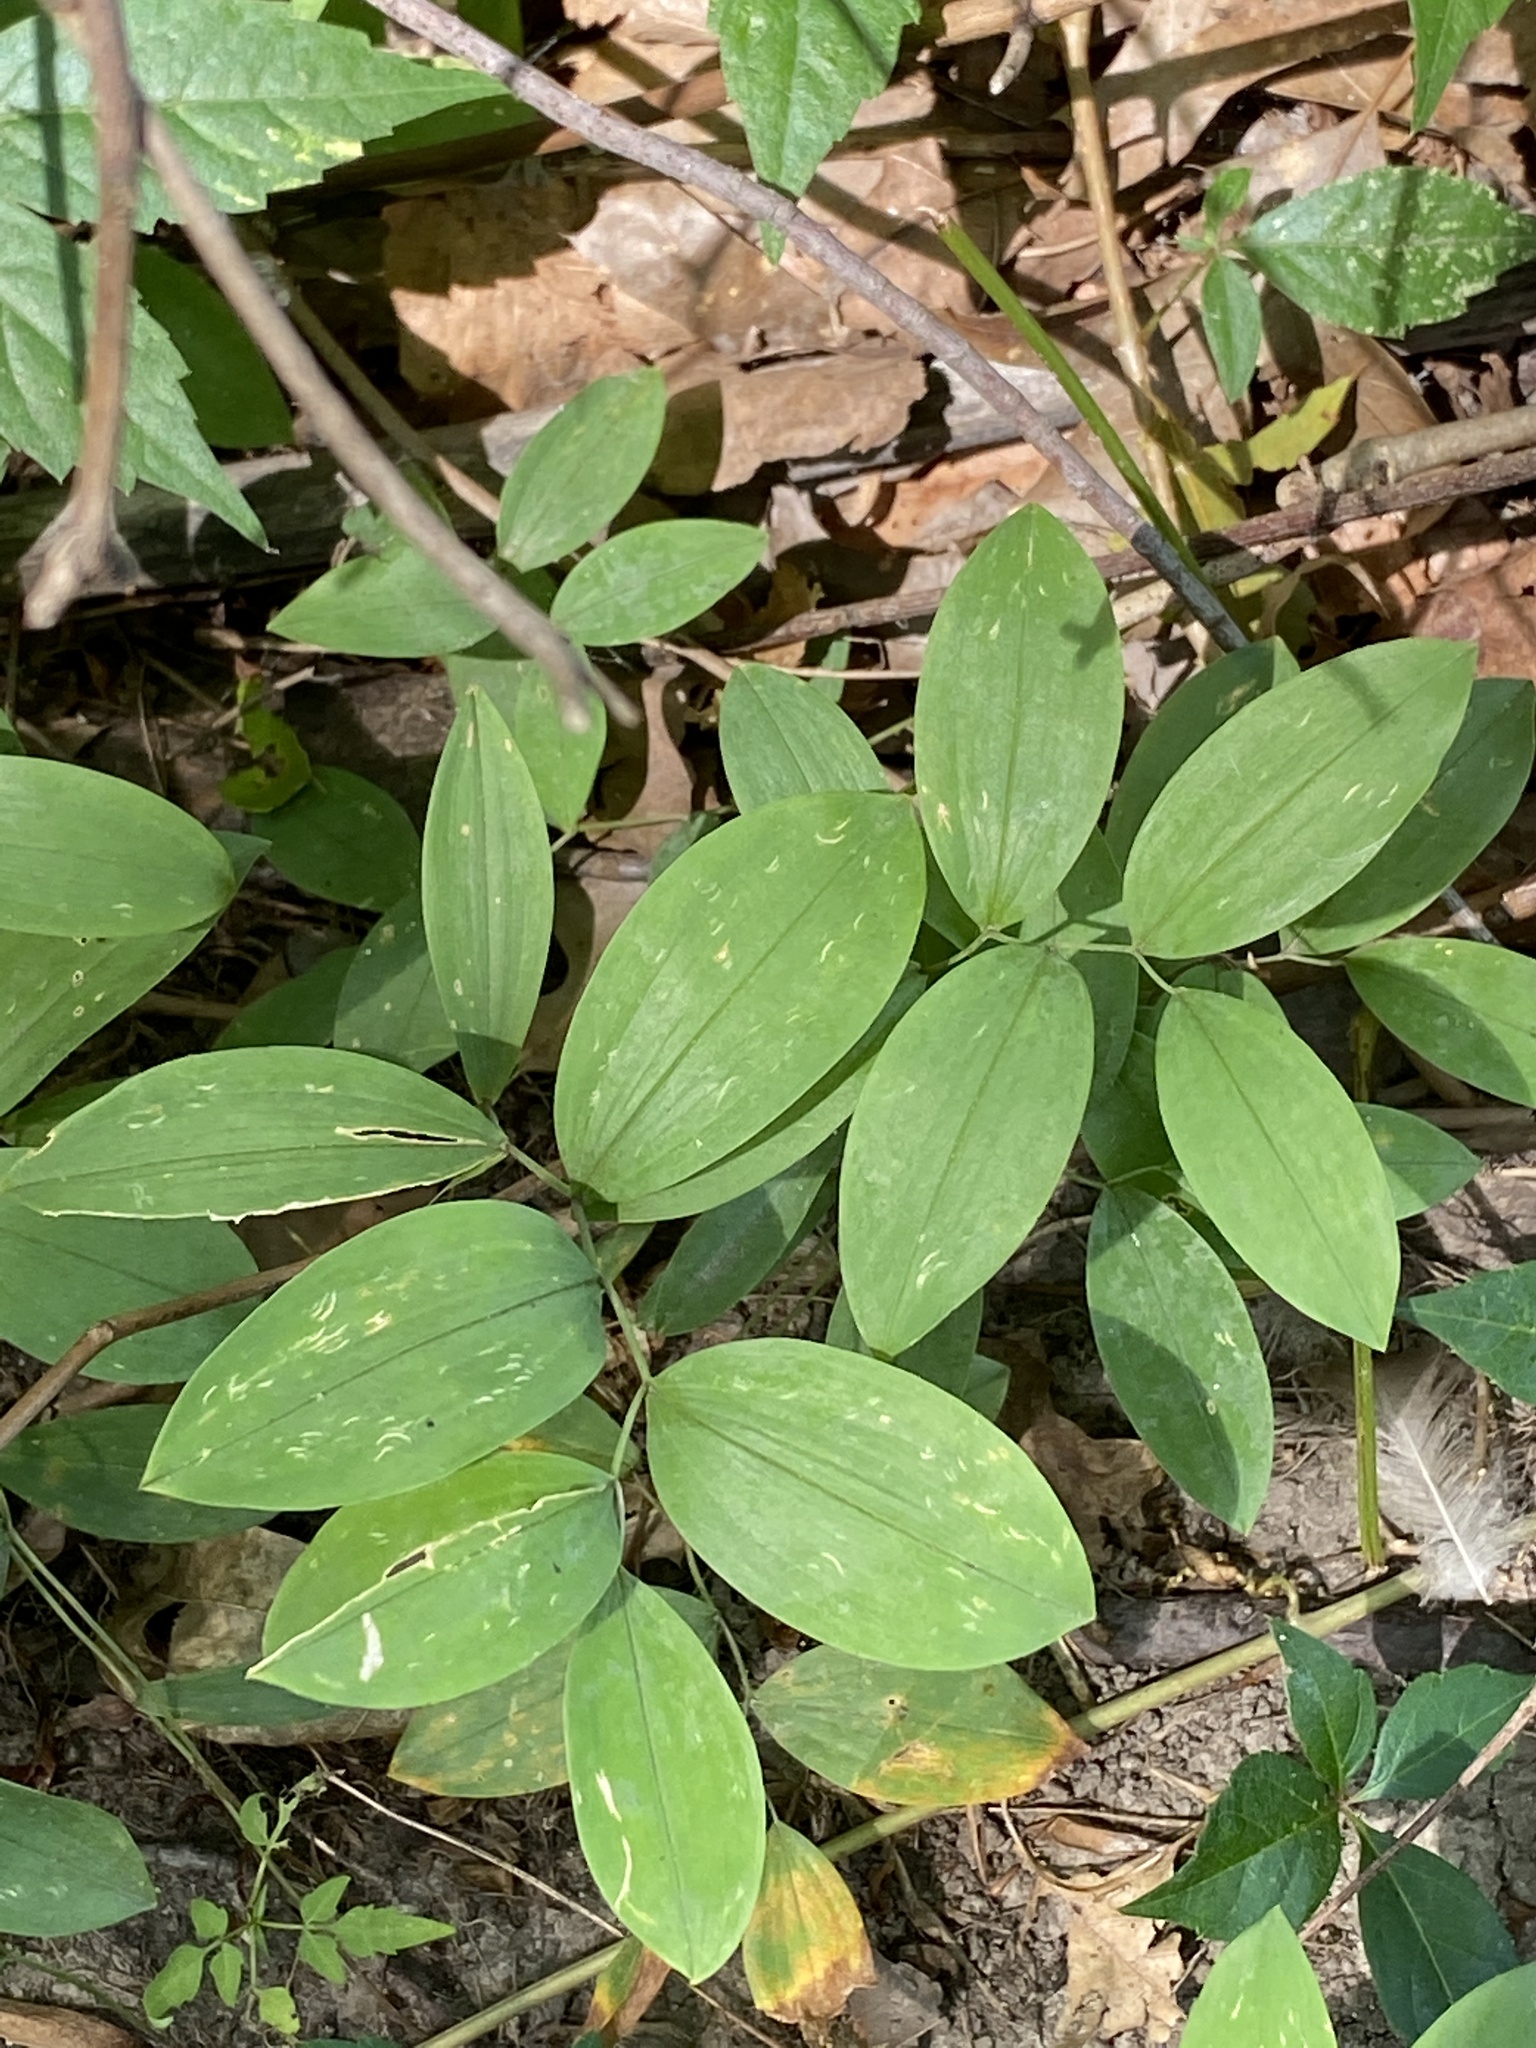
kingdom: Plantae
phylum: Tracheophyta
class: Liliopsida
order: Liliales
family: Colchicaceae
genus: Uvularia
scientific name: Uvularia sessilifolia
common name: Straw-lily
